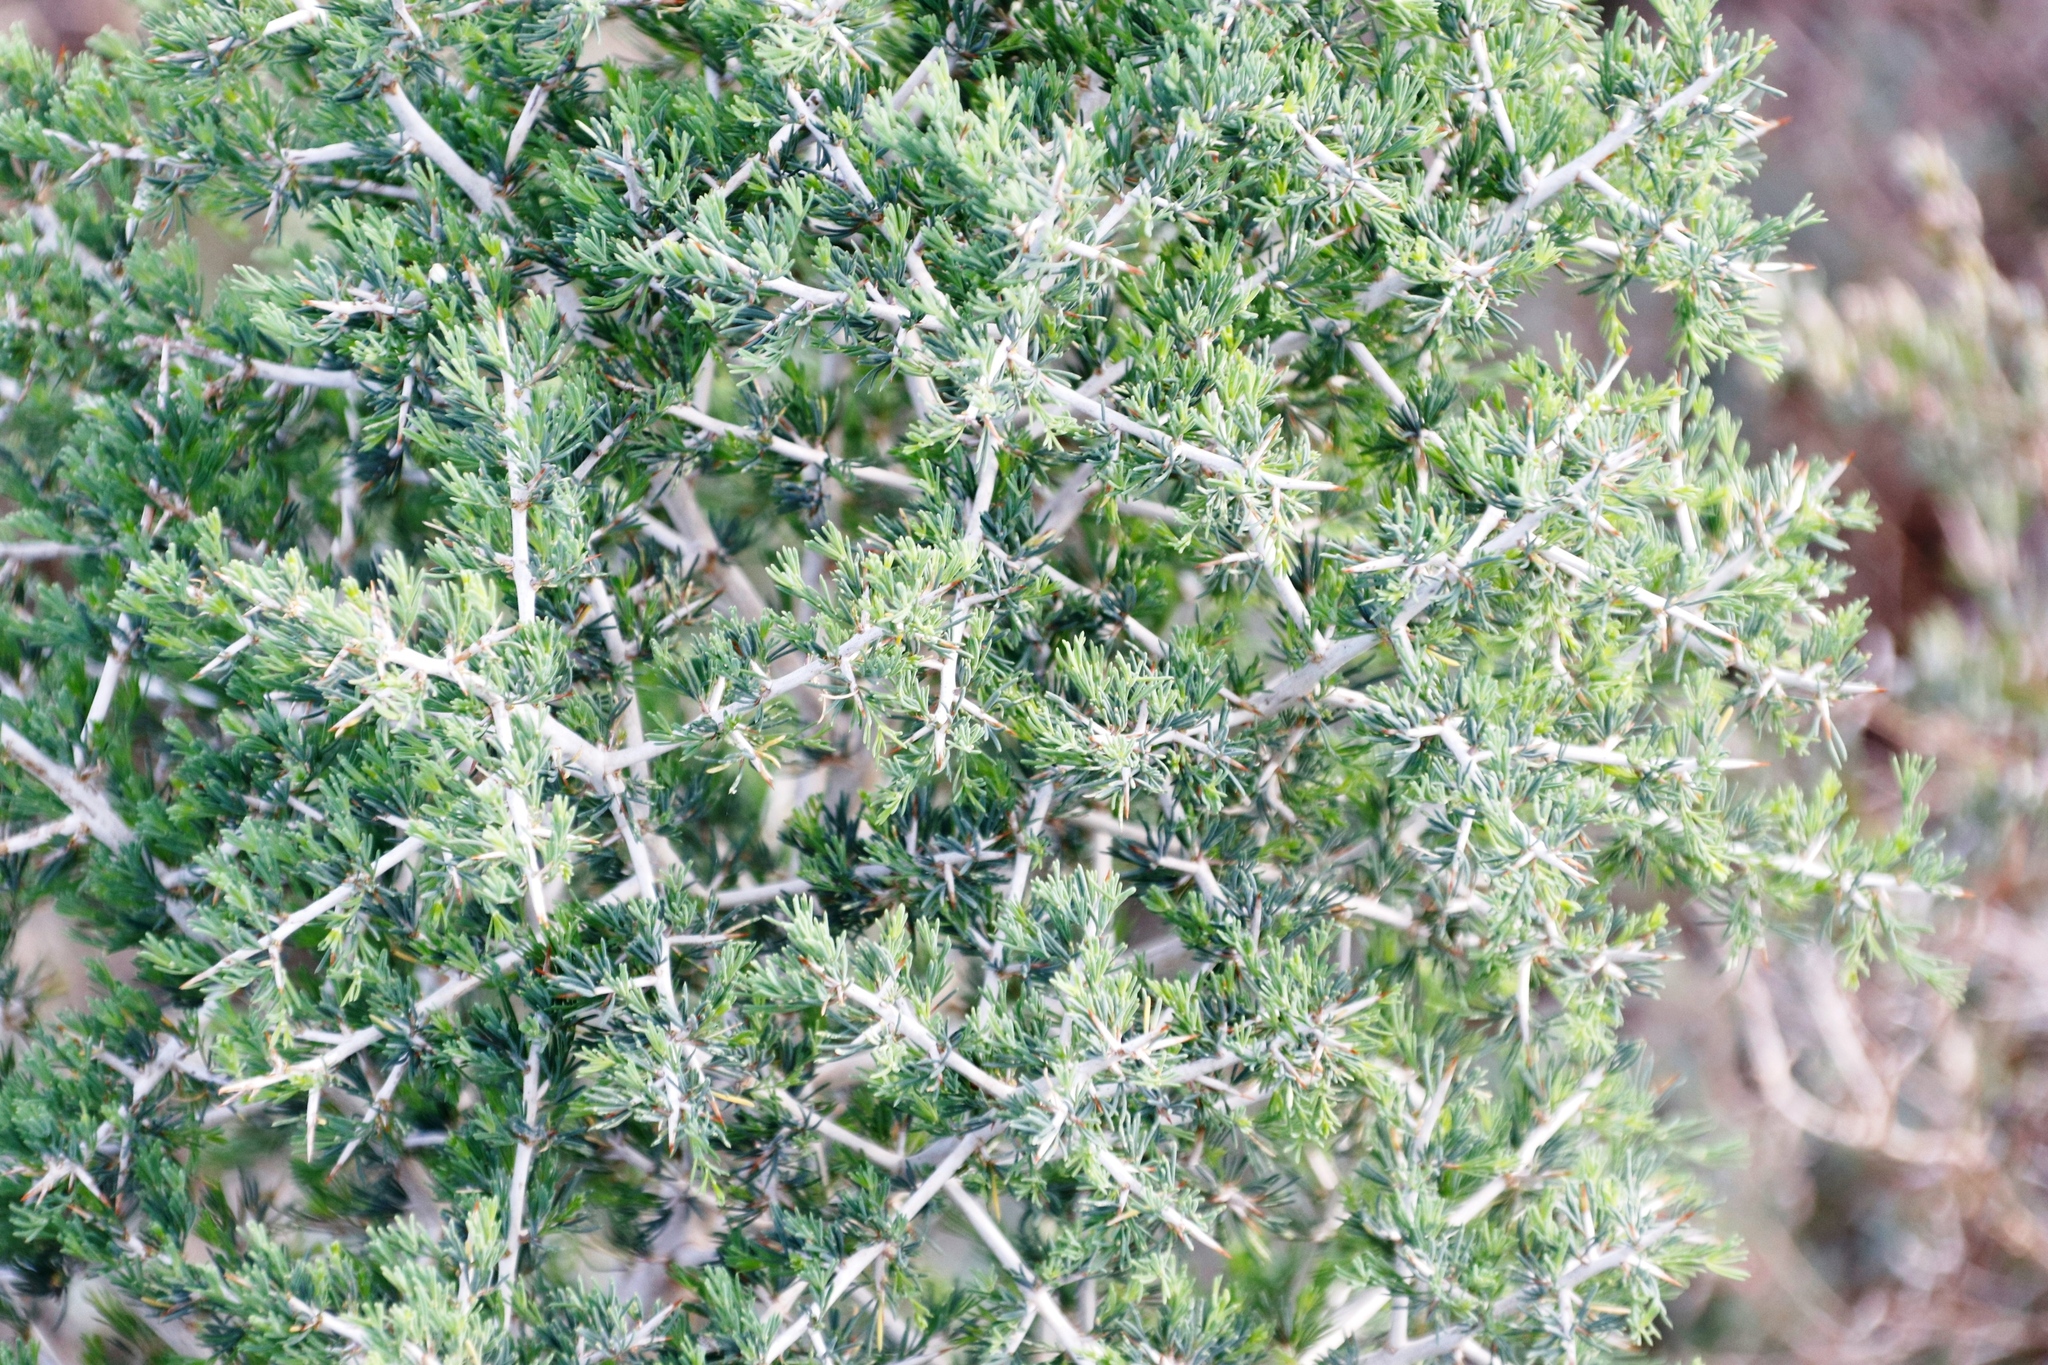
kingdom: Plantae
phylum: Tracheophyta
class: Liliopsida
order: Asparagales
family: Asparagaceae
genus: Asparagus
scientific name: Asparagus mariae
